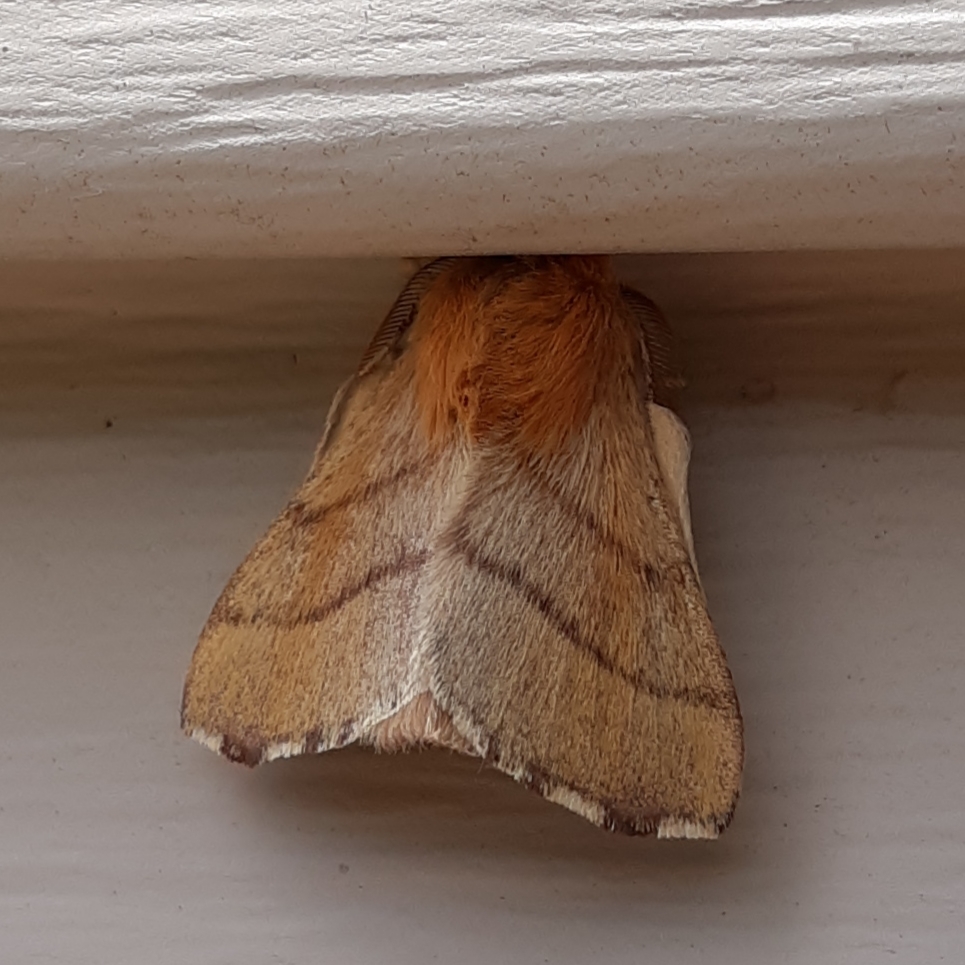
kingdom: Animalia
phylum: Arthropoda
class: Insecta
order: Lepidoptera
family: Lasiocampidae
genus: Malacosoma
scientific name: Malacosoma disstria
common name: Forest tent caterpillar
